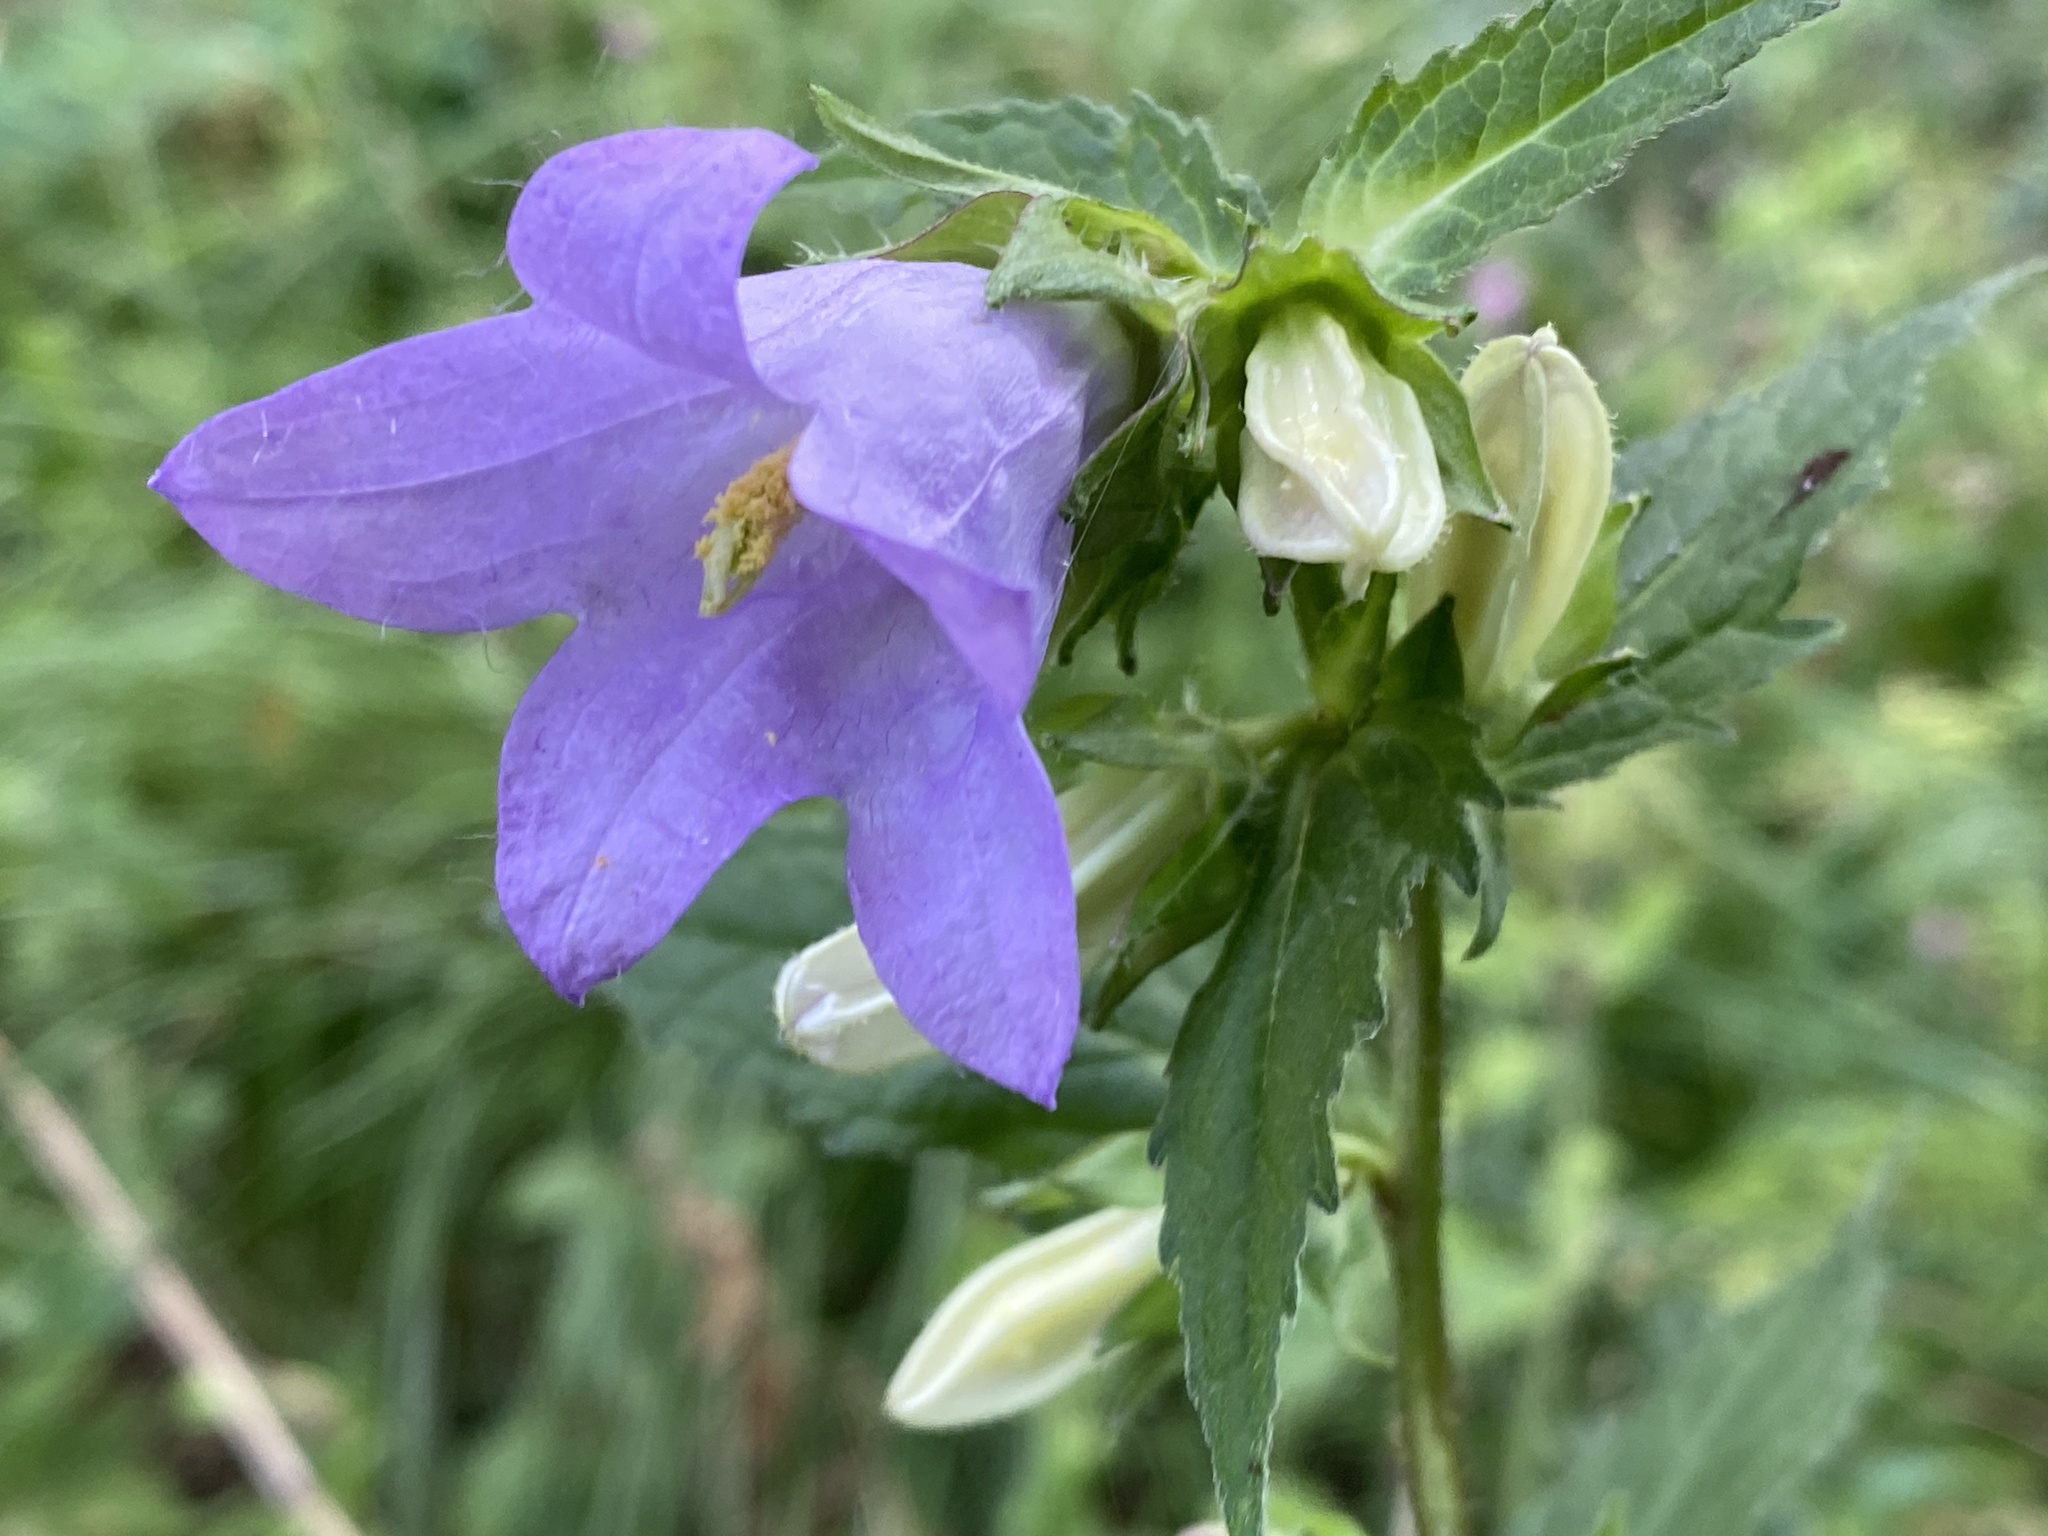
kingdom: Plantae
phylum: Tracheophyta
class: Magnoliopsida
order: Asterales
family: Campanulaceae
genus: Campanula
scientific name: Campanula trachelium
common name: Nettle-leaved bellflower
